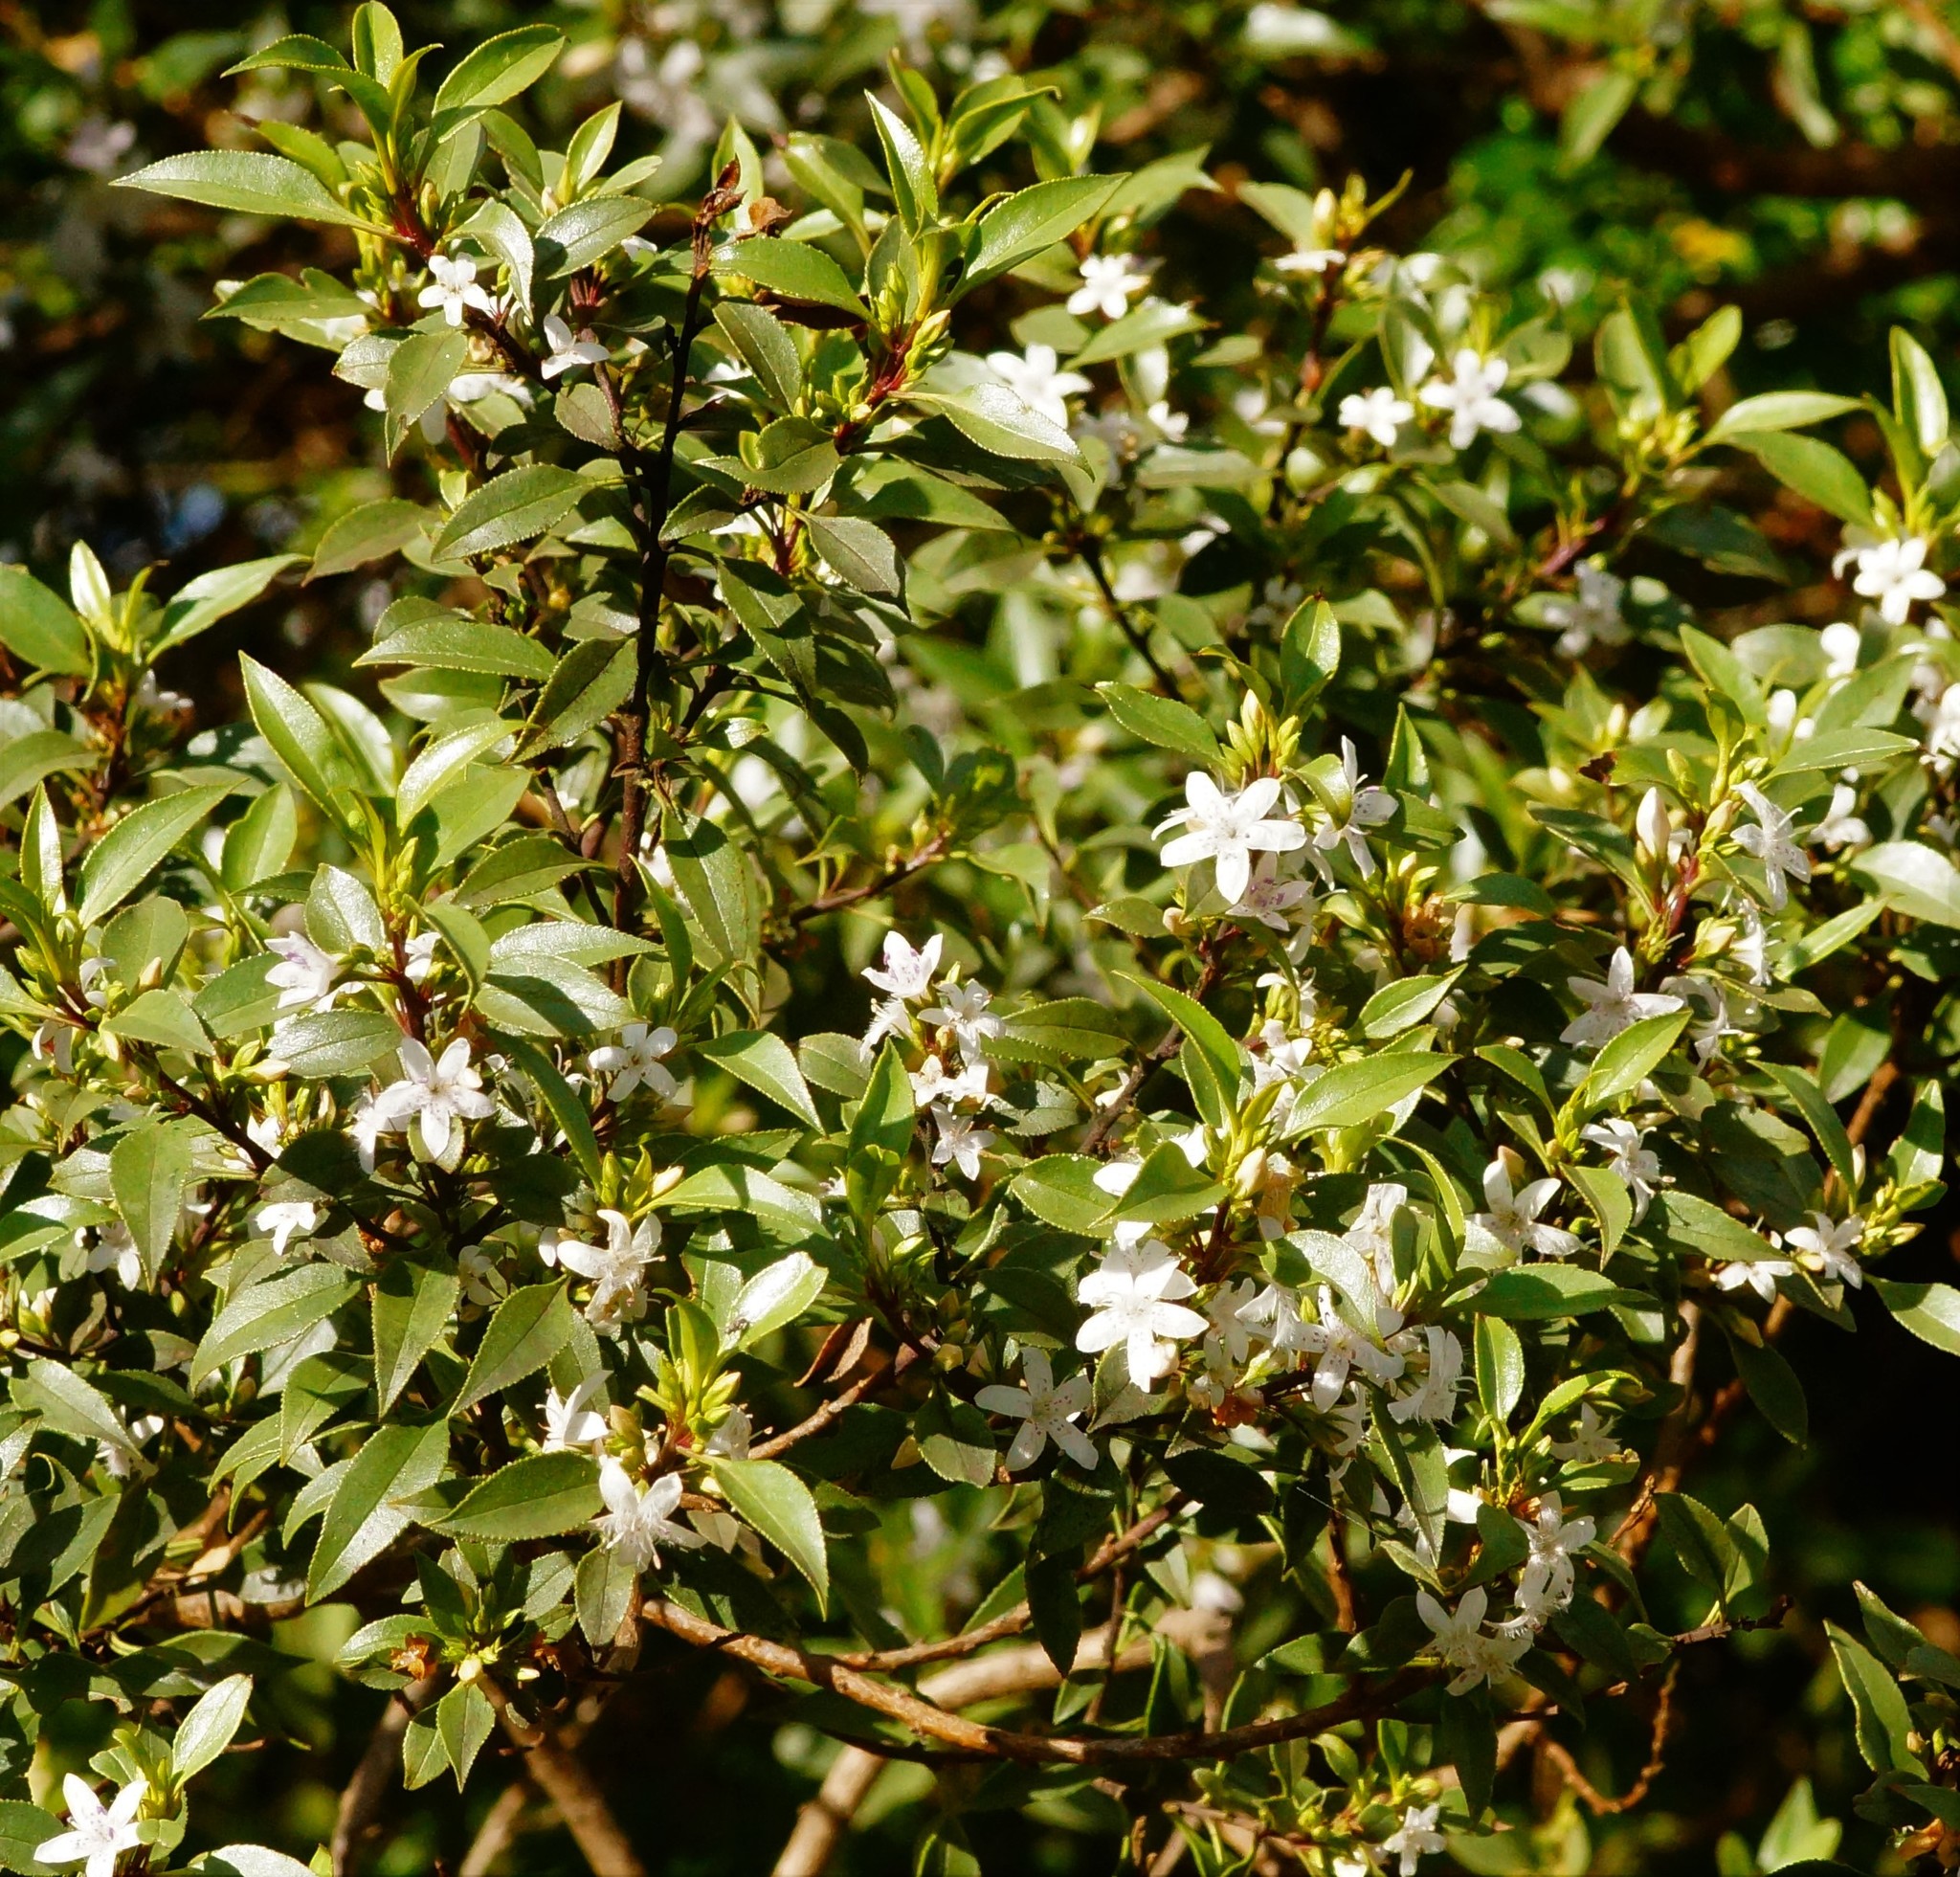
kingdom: Plantae
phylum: Tracheophyta
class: Magnoliopsida
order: Lamiales
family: Scrophulariaceae
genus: Myoporum
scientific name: Myoporum petiolatum
